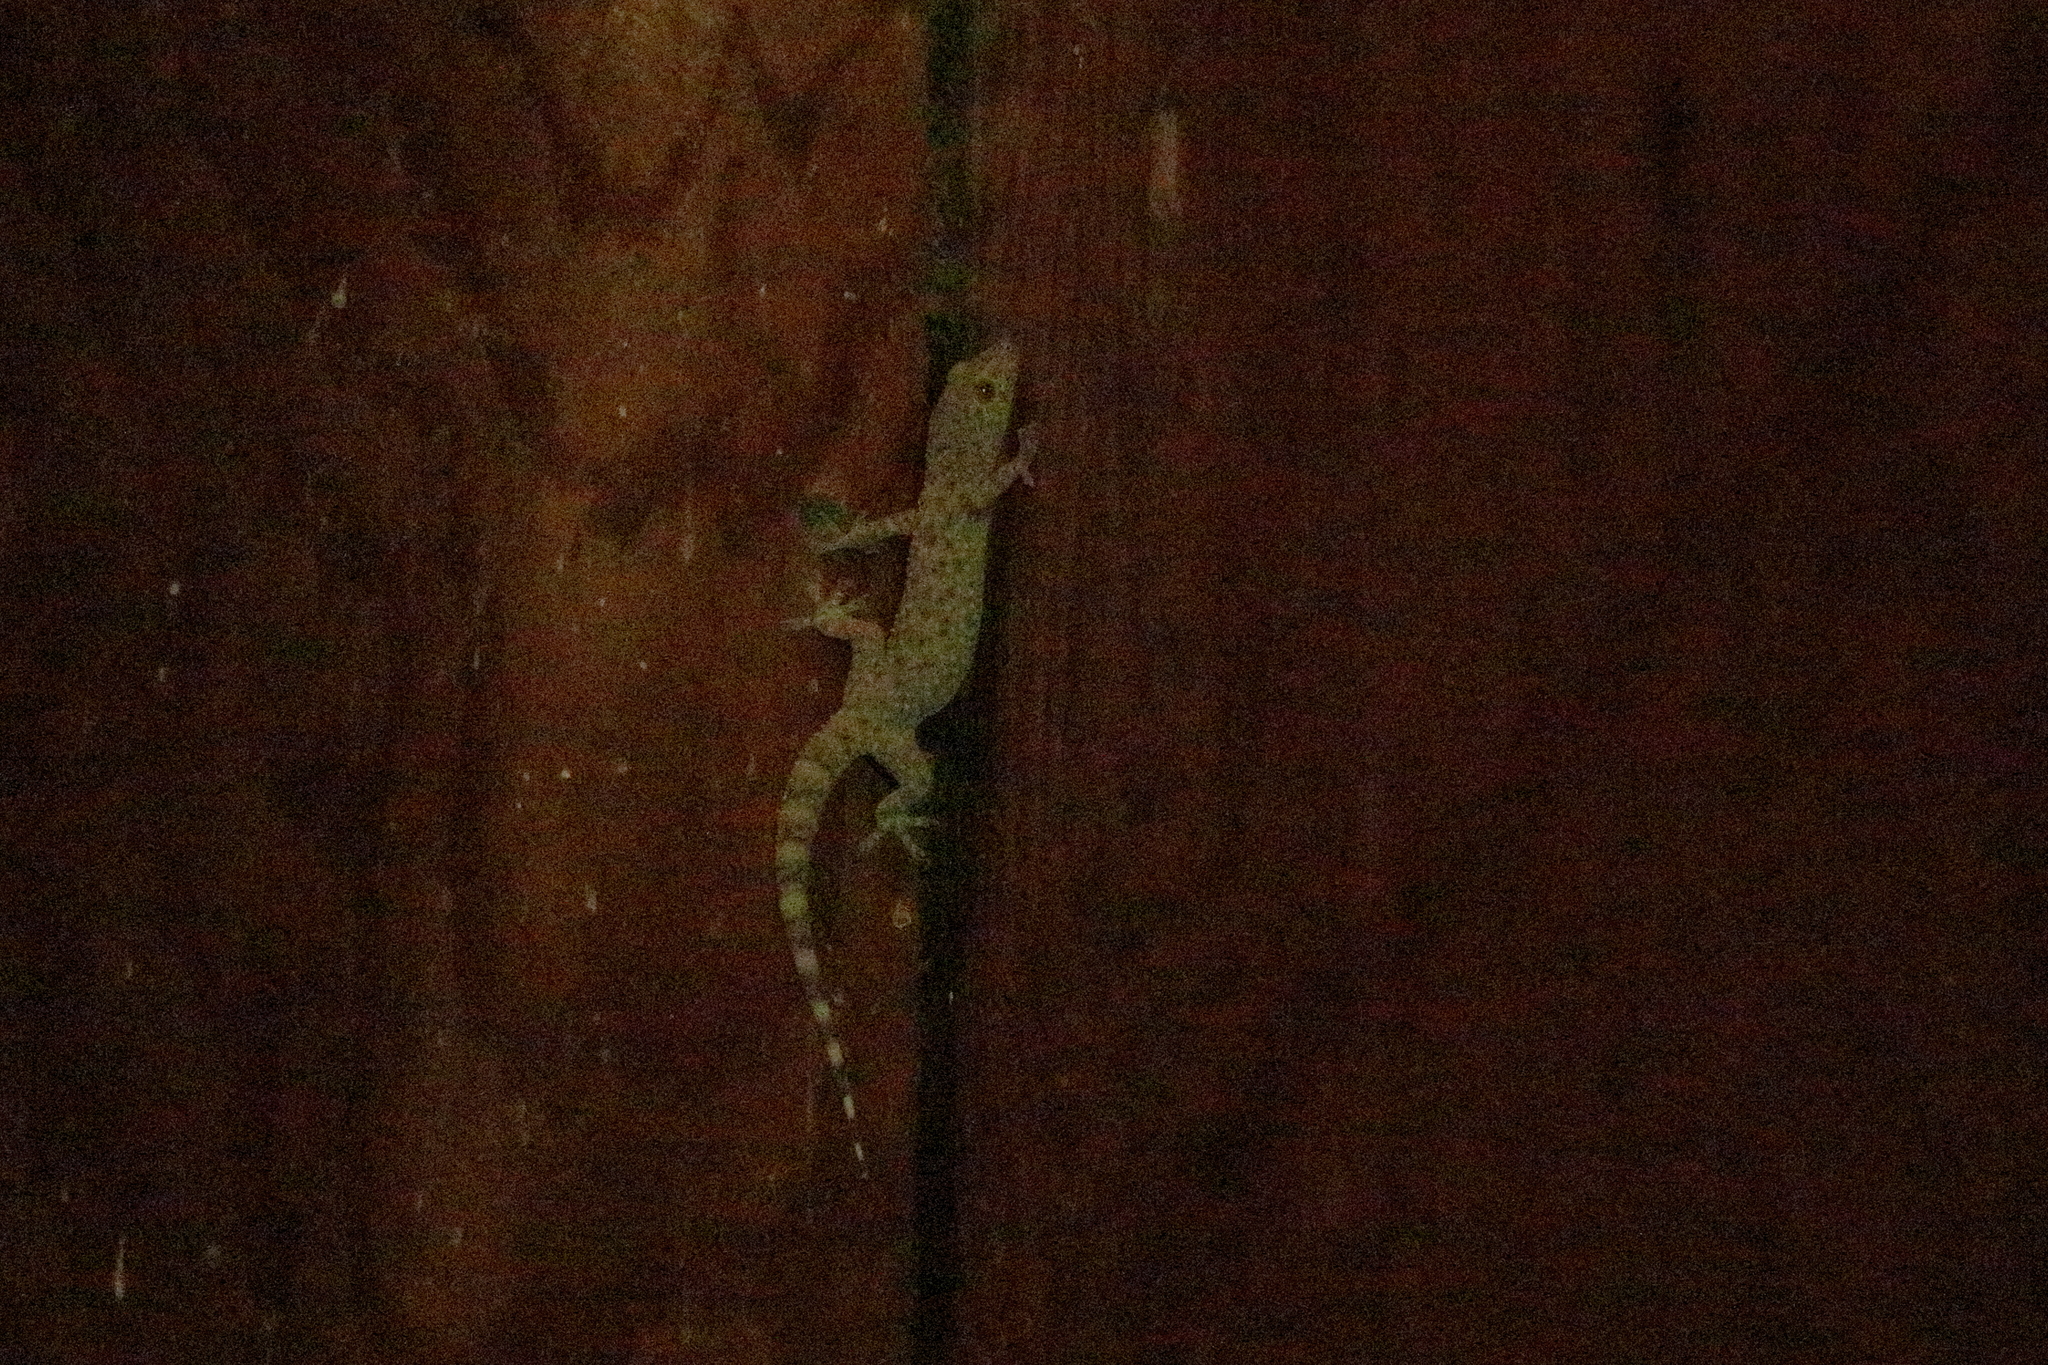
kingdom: Animalia
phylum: Chordata
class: Squamata
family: Gekkonidae
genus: Hemidactylus
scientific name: Hemidactylus turcicus
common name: Turkish gecko
